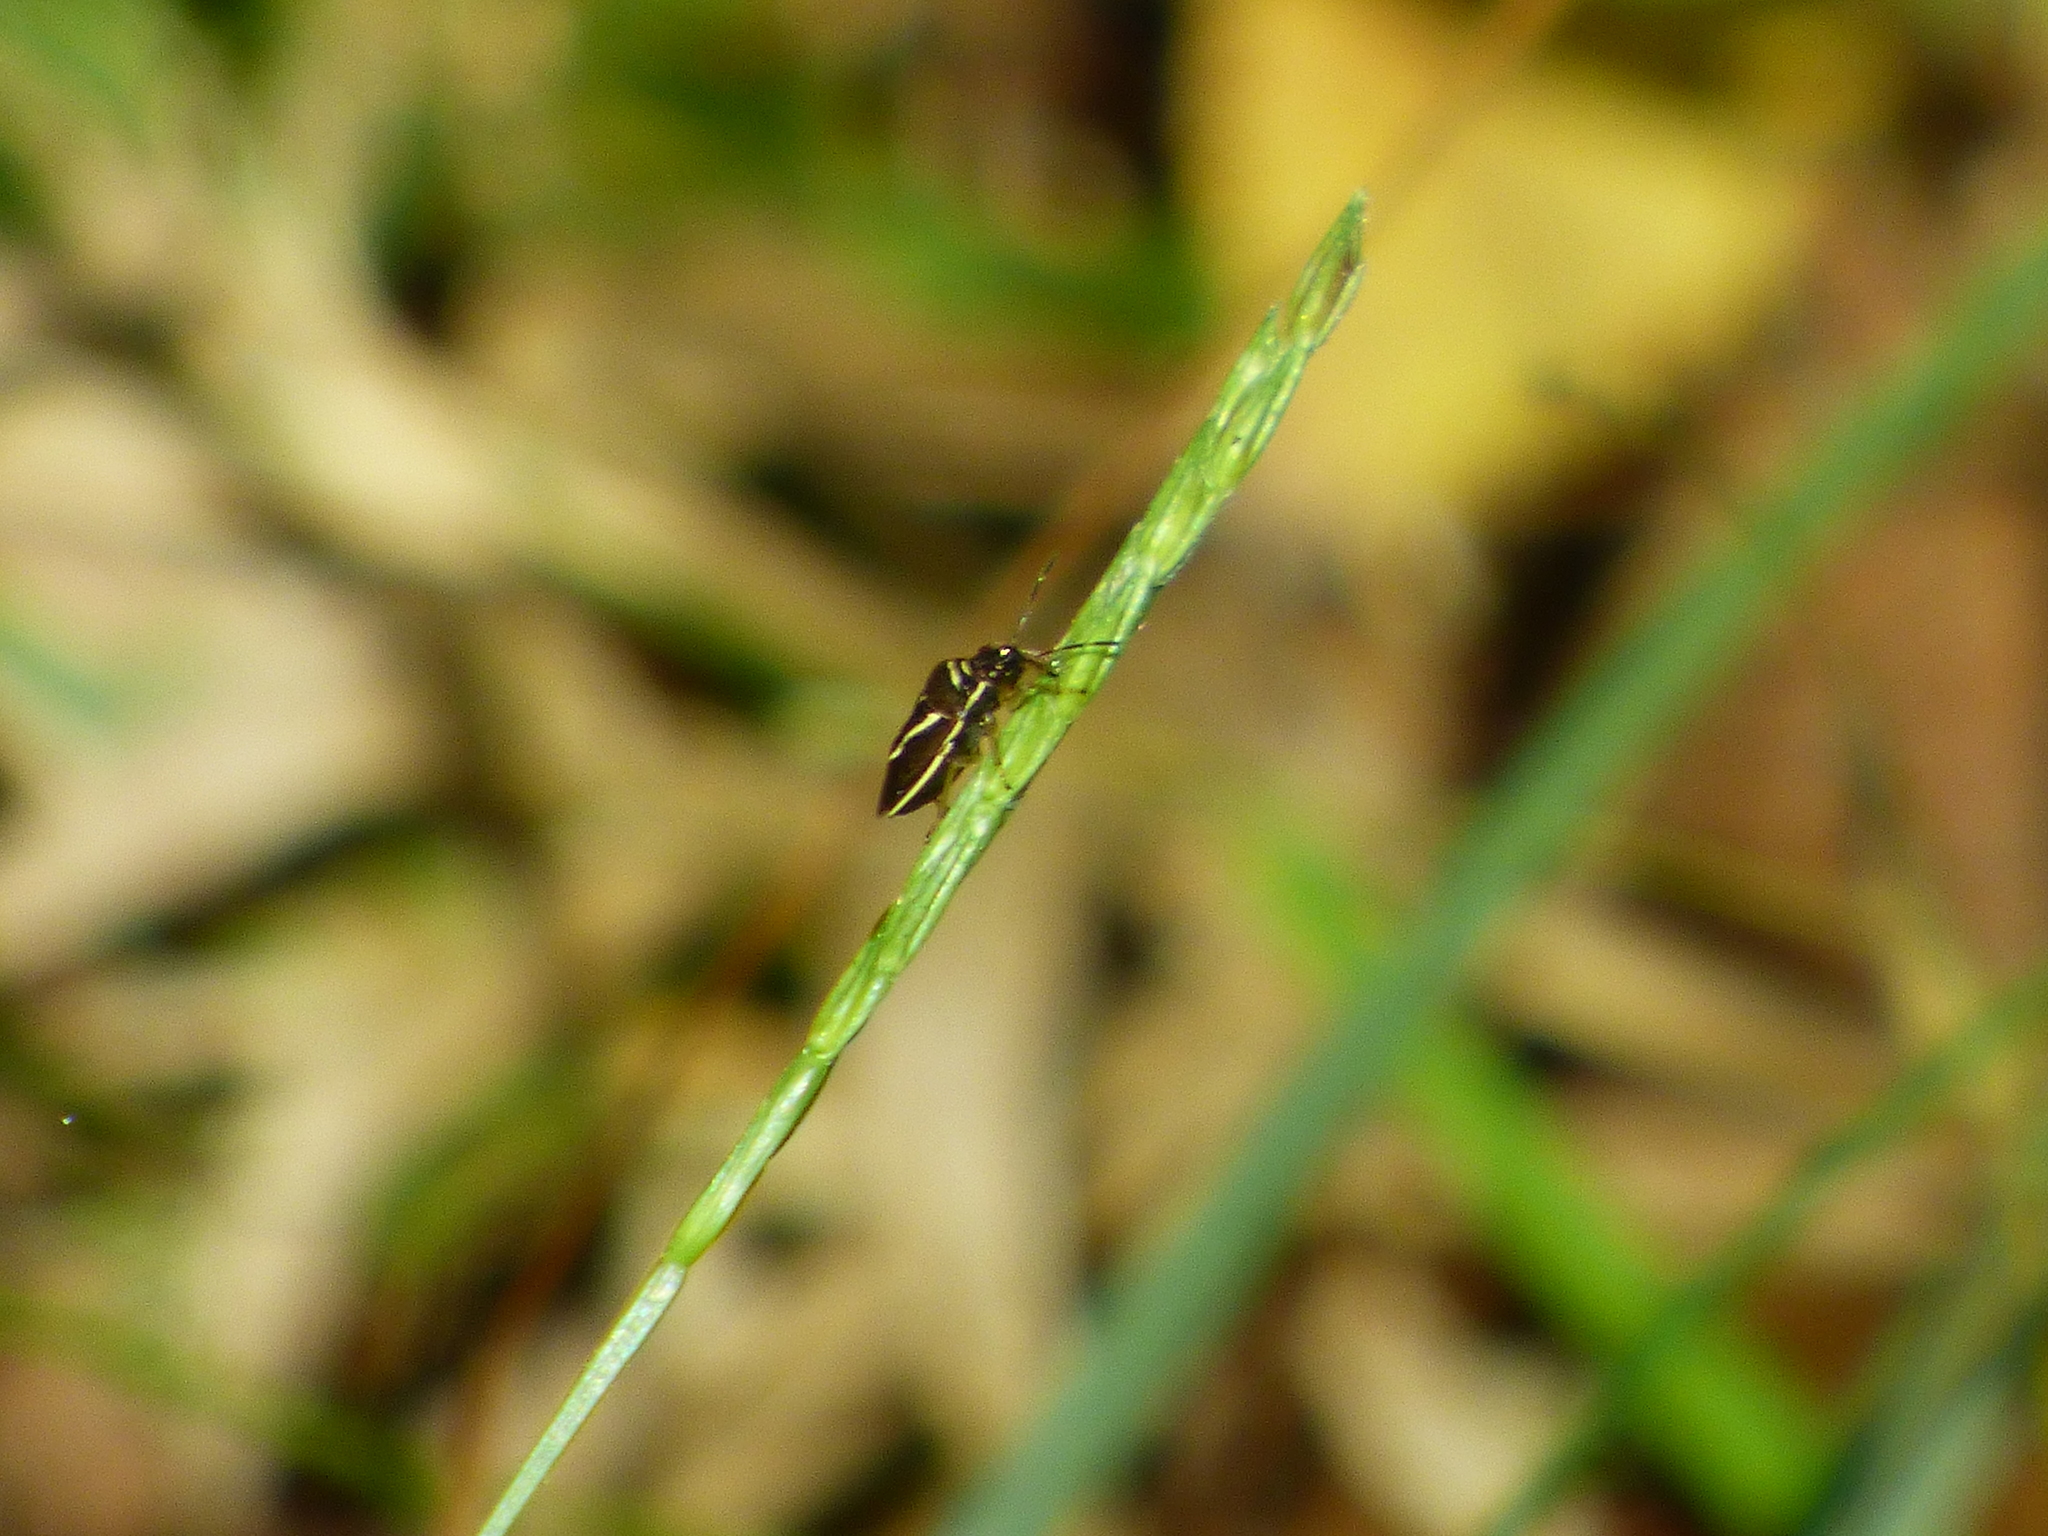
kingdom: Animalia
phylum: Arthropoda
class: Insecta
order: Hemiptera
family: Pentatomidae
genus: Mormidea
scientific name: Mormidea lugens
